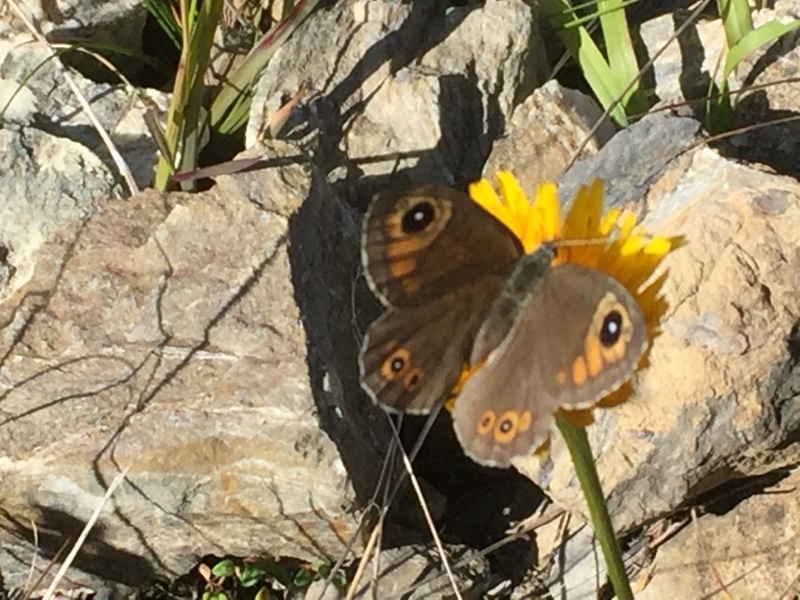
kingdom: Animalia
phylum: Arthropoda
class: Insecta
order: Lepidoptera
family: Nymphalidae
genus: Pararge
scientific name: Pararge Lasiommata maera
